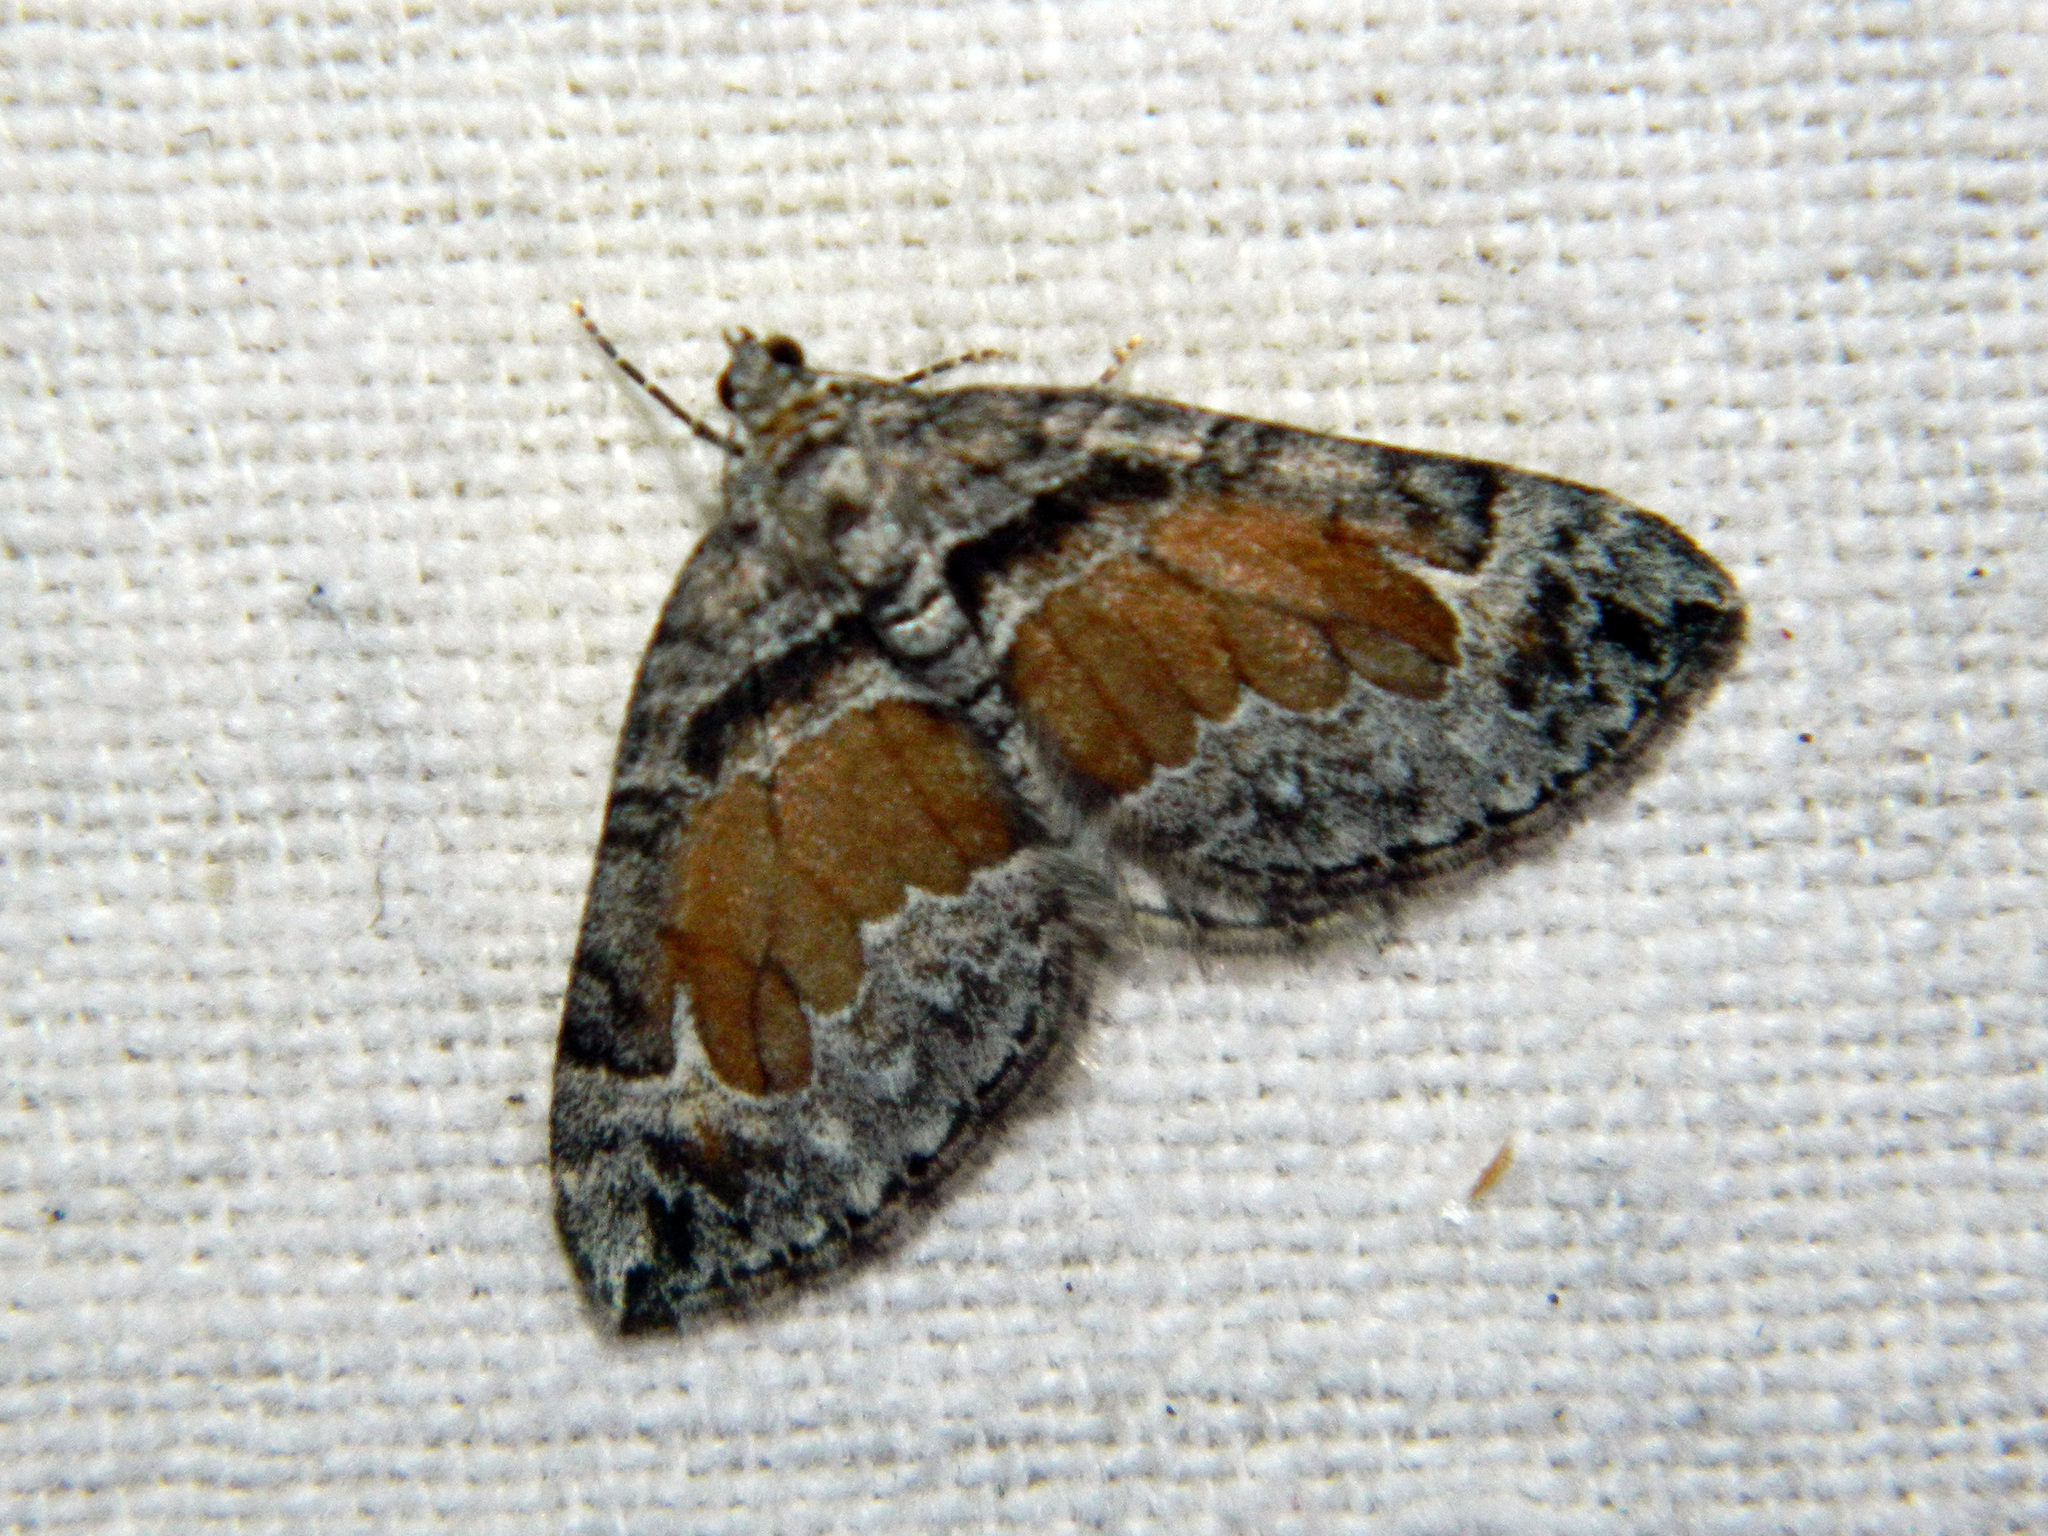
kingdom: Animalia
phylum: Arthropoda
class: Insecta
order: Lepidoptera
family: Geometridae
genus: Dysstroma
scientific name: Dysstroma hersiliata
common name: Orange-barred carpet
